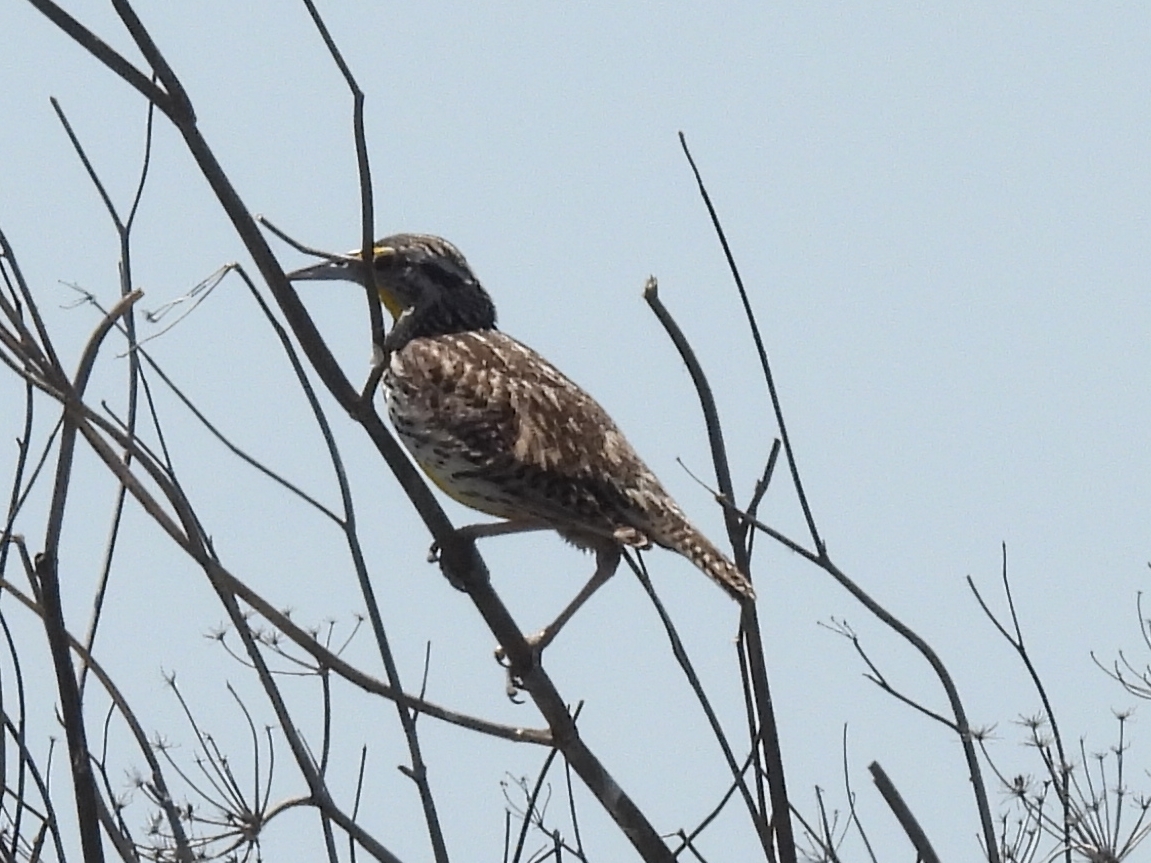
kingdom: Animalia
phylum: Chordata
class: Aves
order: Passeriformes
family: Icteridae
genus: Sturnella
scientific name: Sturnella neglecta
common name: Western meadowlark
